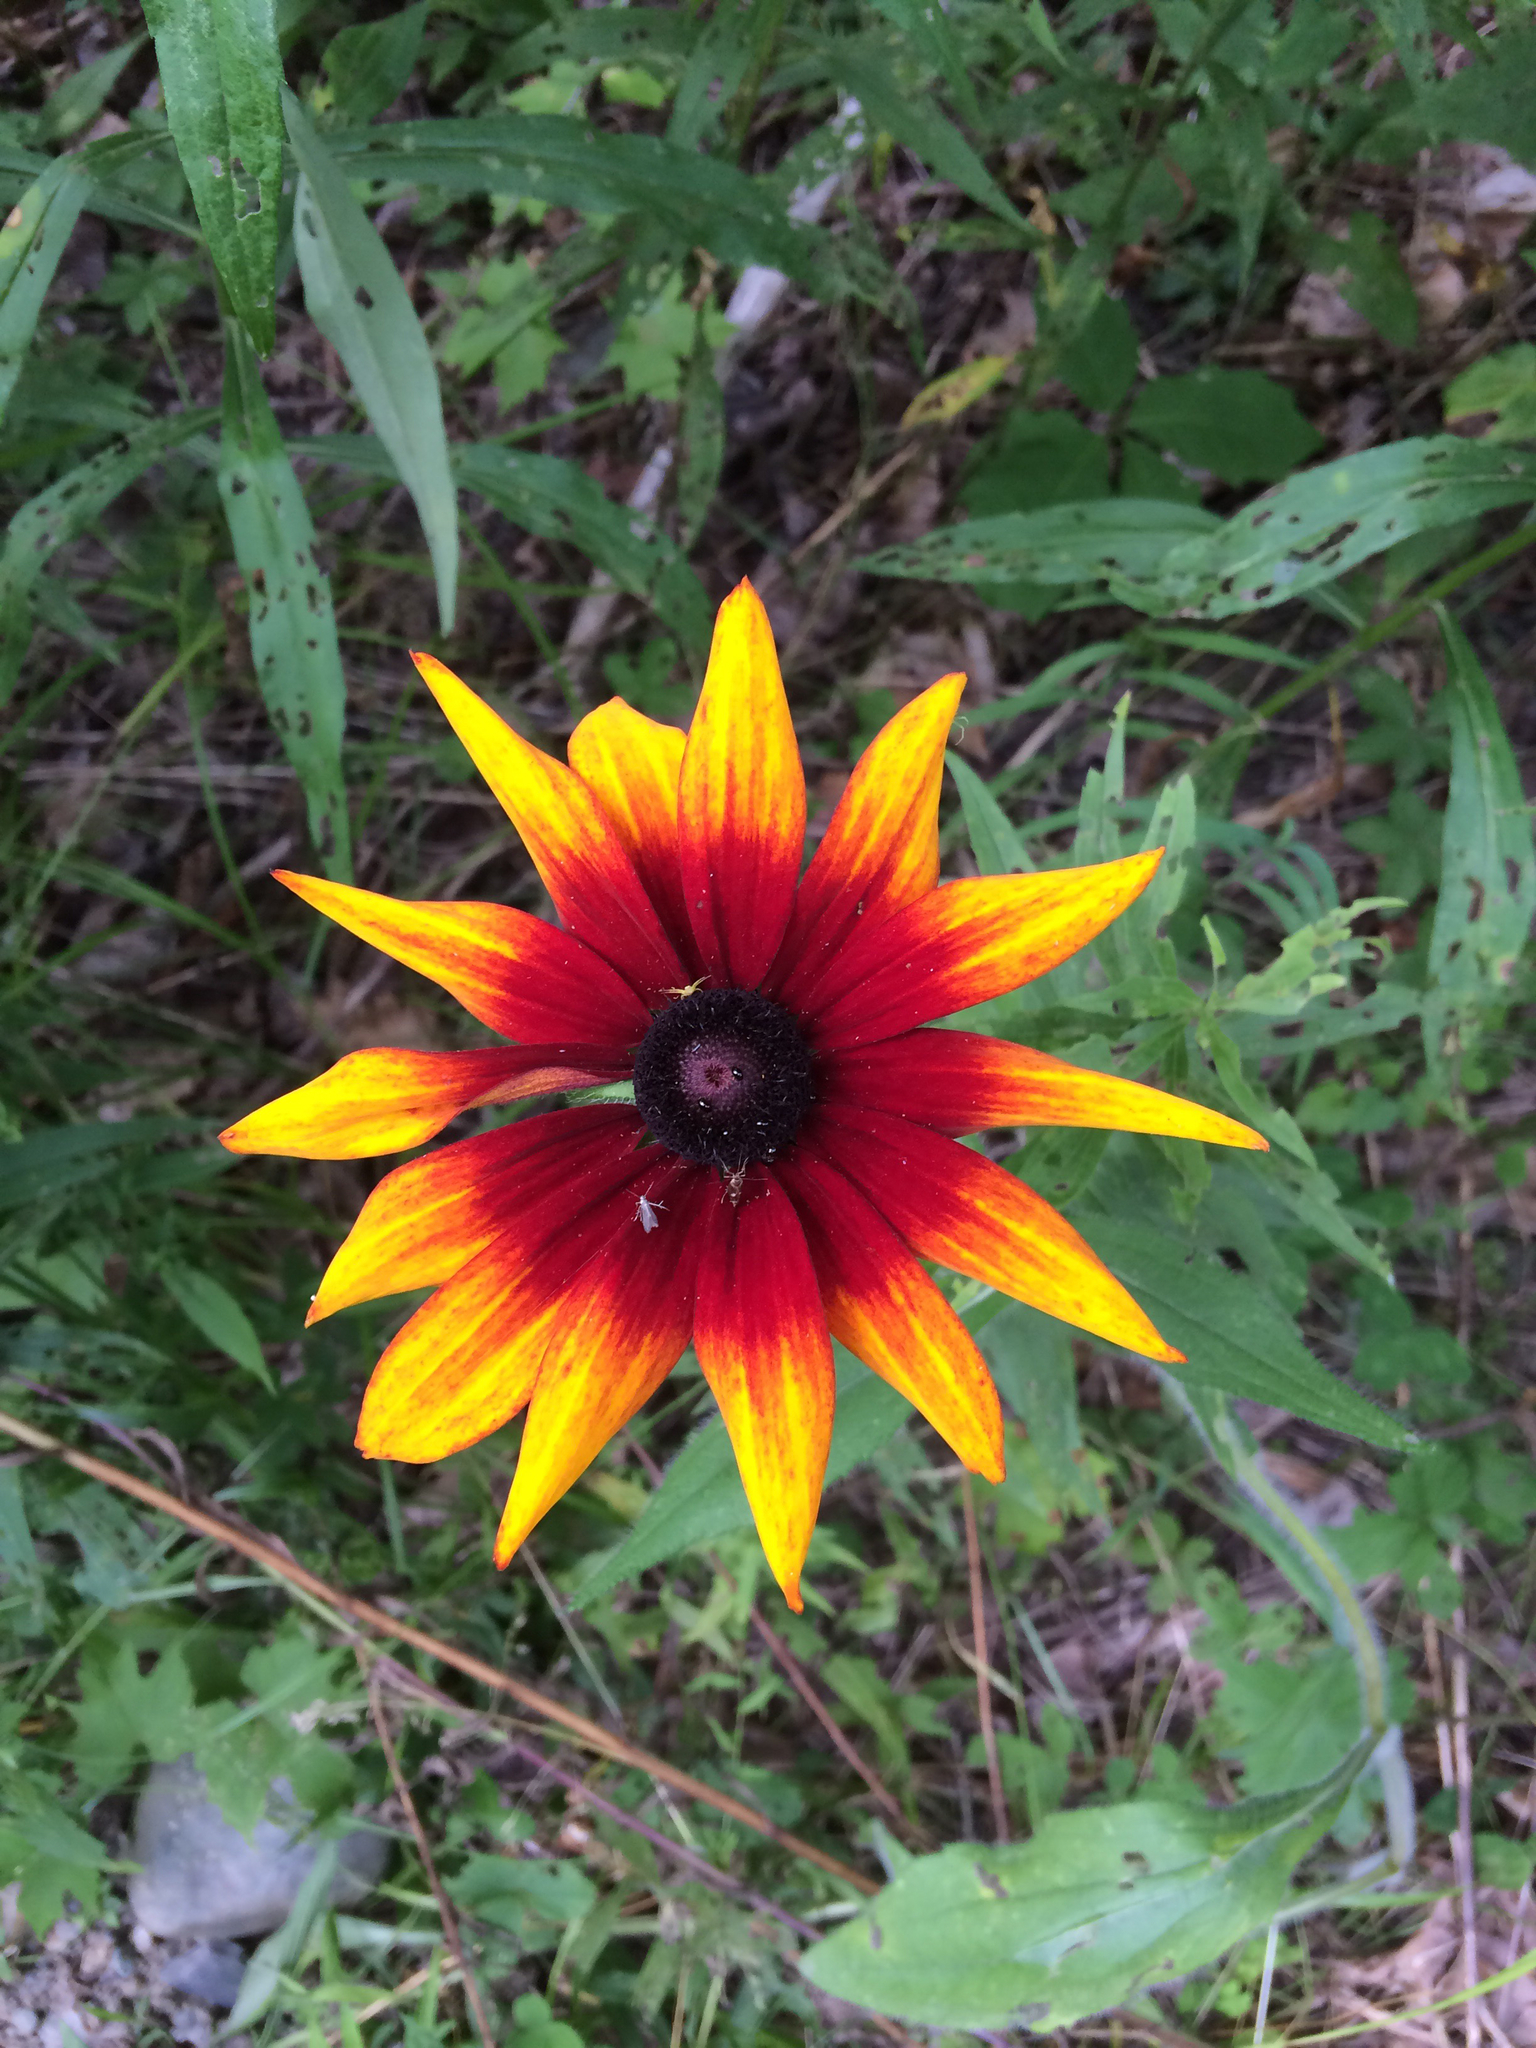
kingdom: Plantae
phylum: Tracheophyta
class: Magnoliopsida
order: Asterales
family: Asteraceae
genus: Rudbeckia
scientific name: Rudbeckia hirta
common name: Black-eyed-susan
